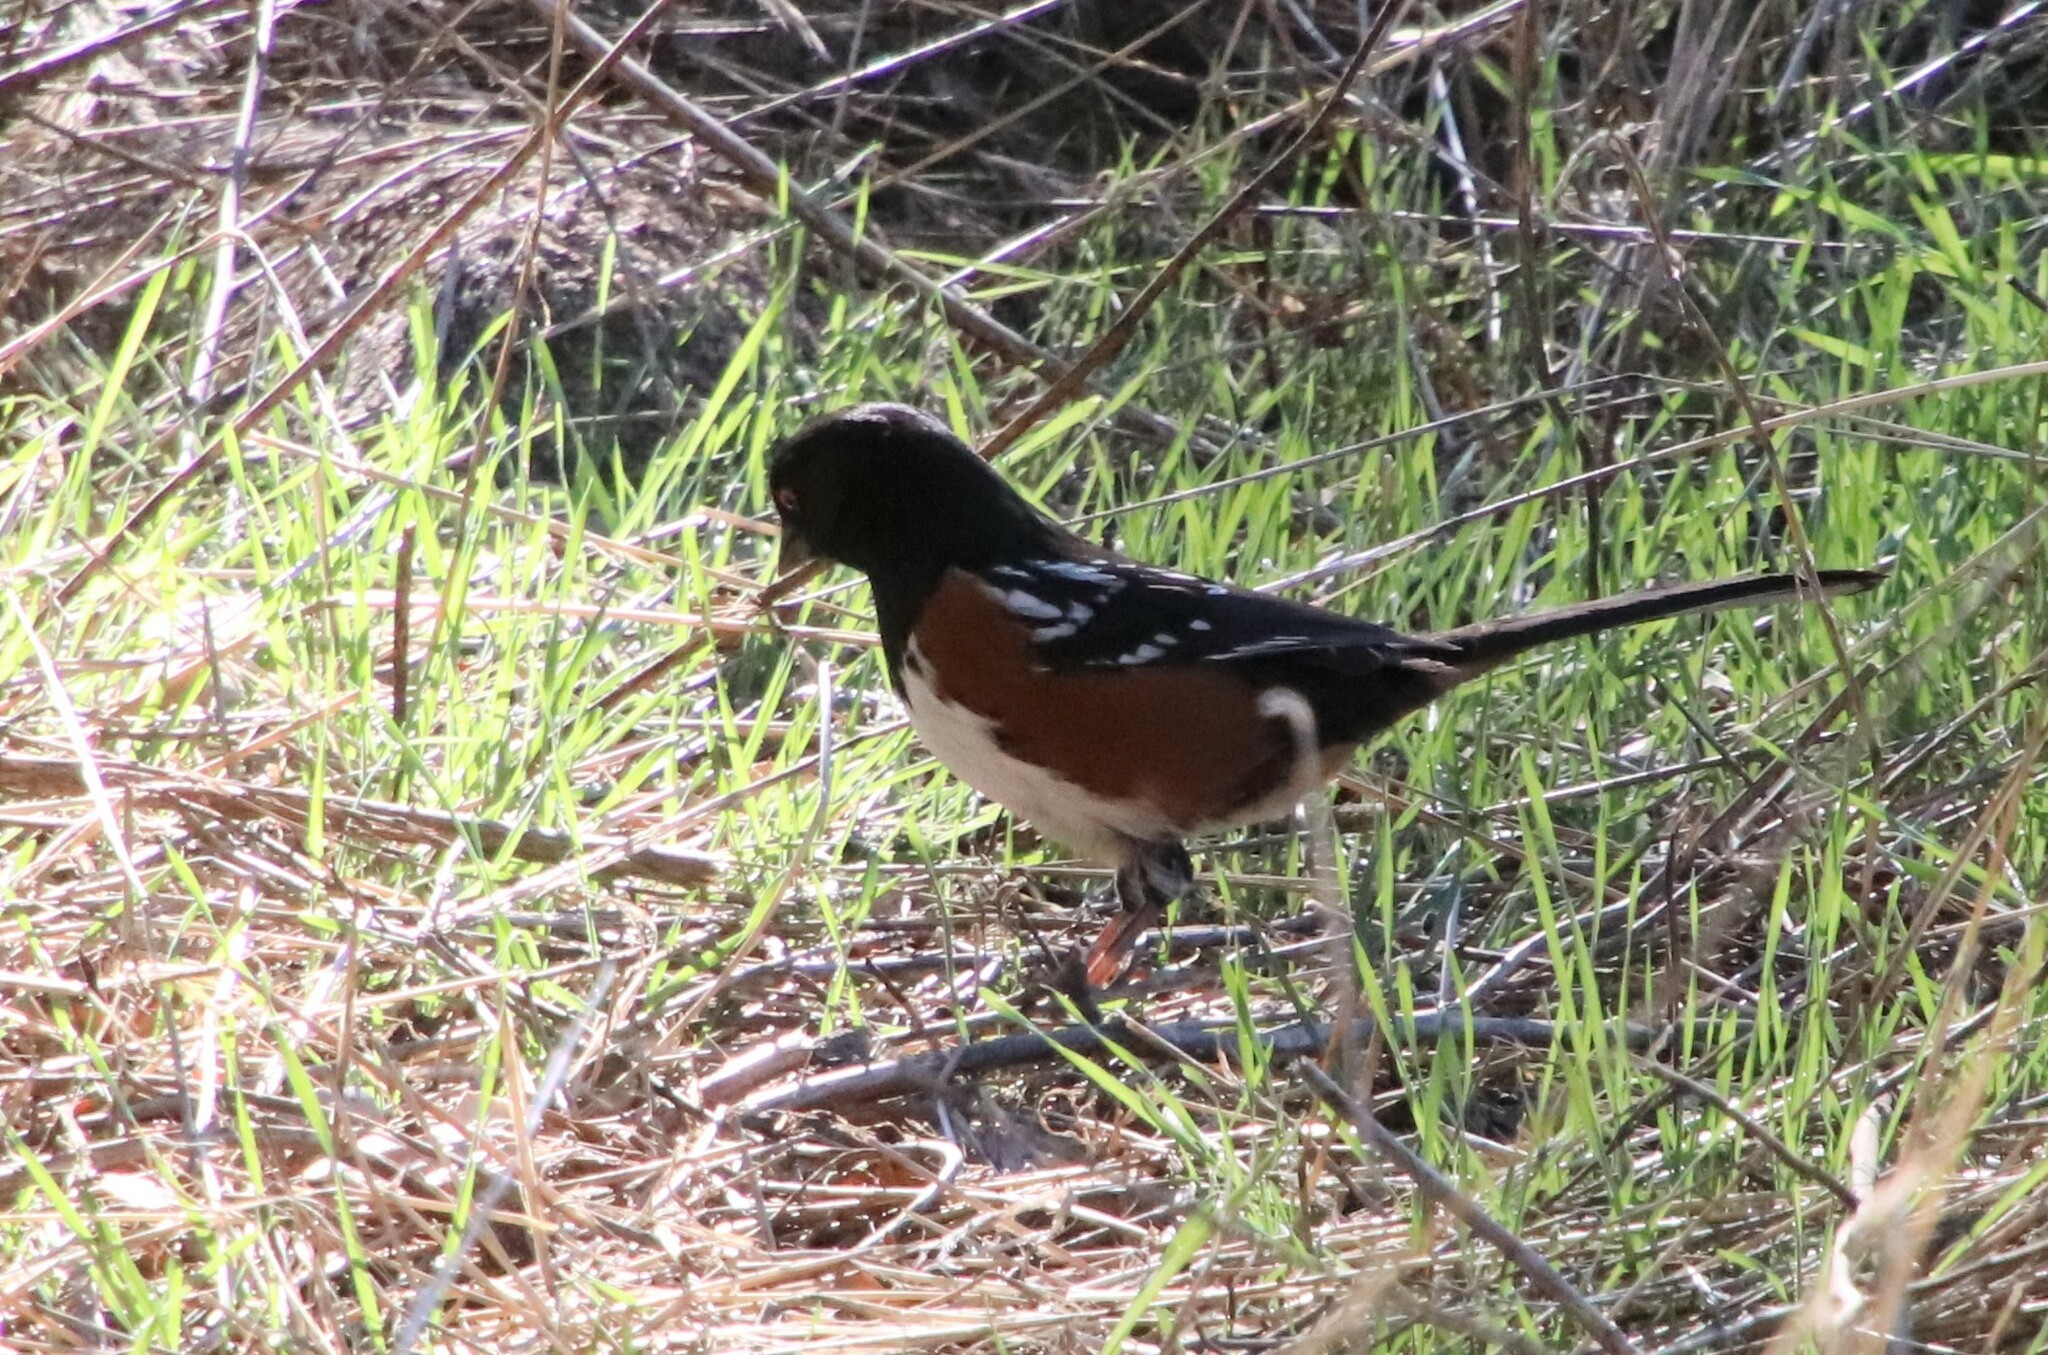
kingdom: Animalia
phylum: Chordata
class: Aves
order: Passeriformes
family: Passerellidae
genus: Pipilo
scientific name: Pipilo maculatus
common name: Spotted towhee
